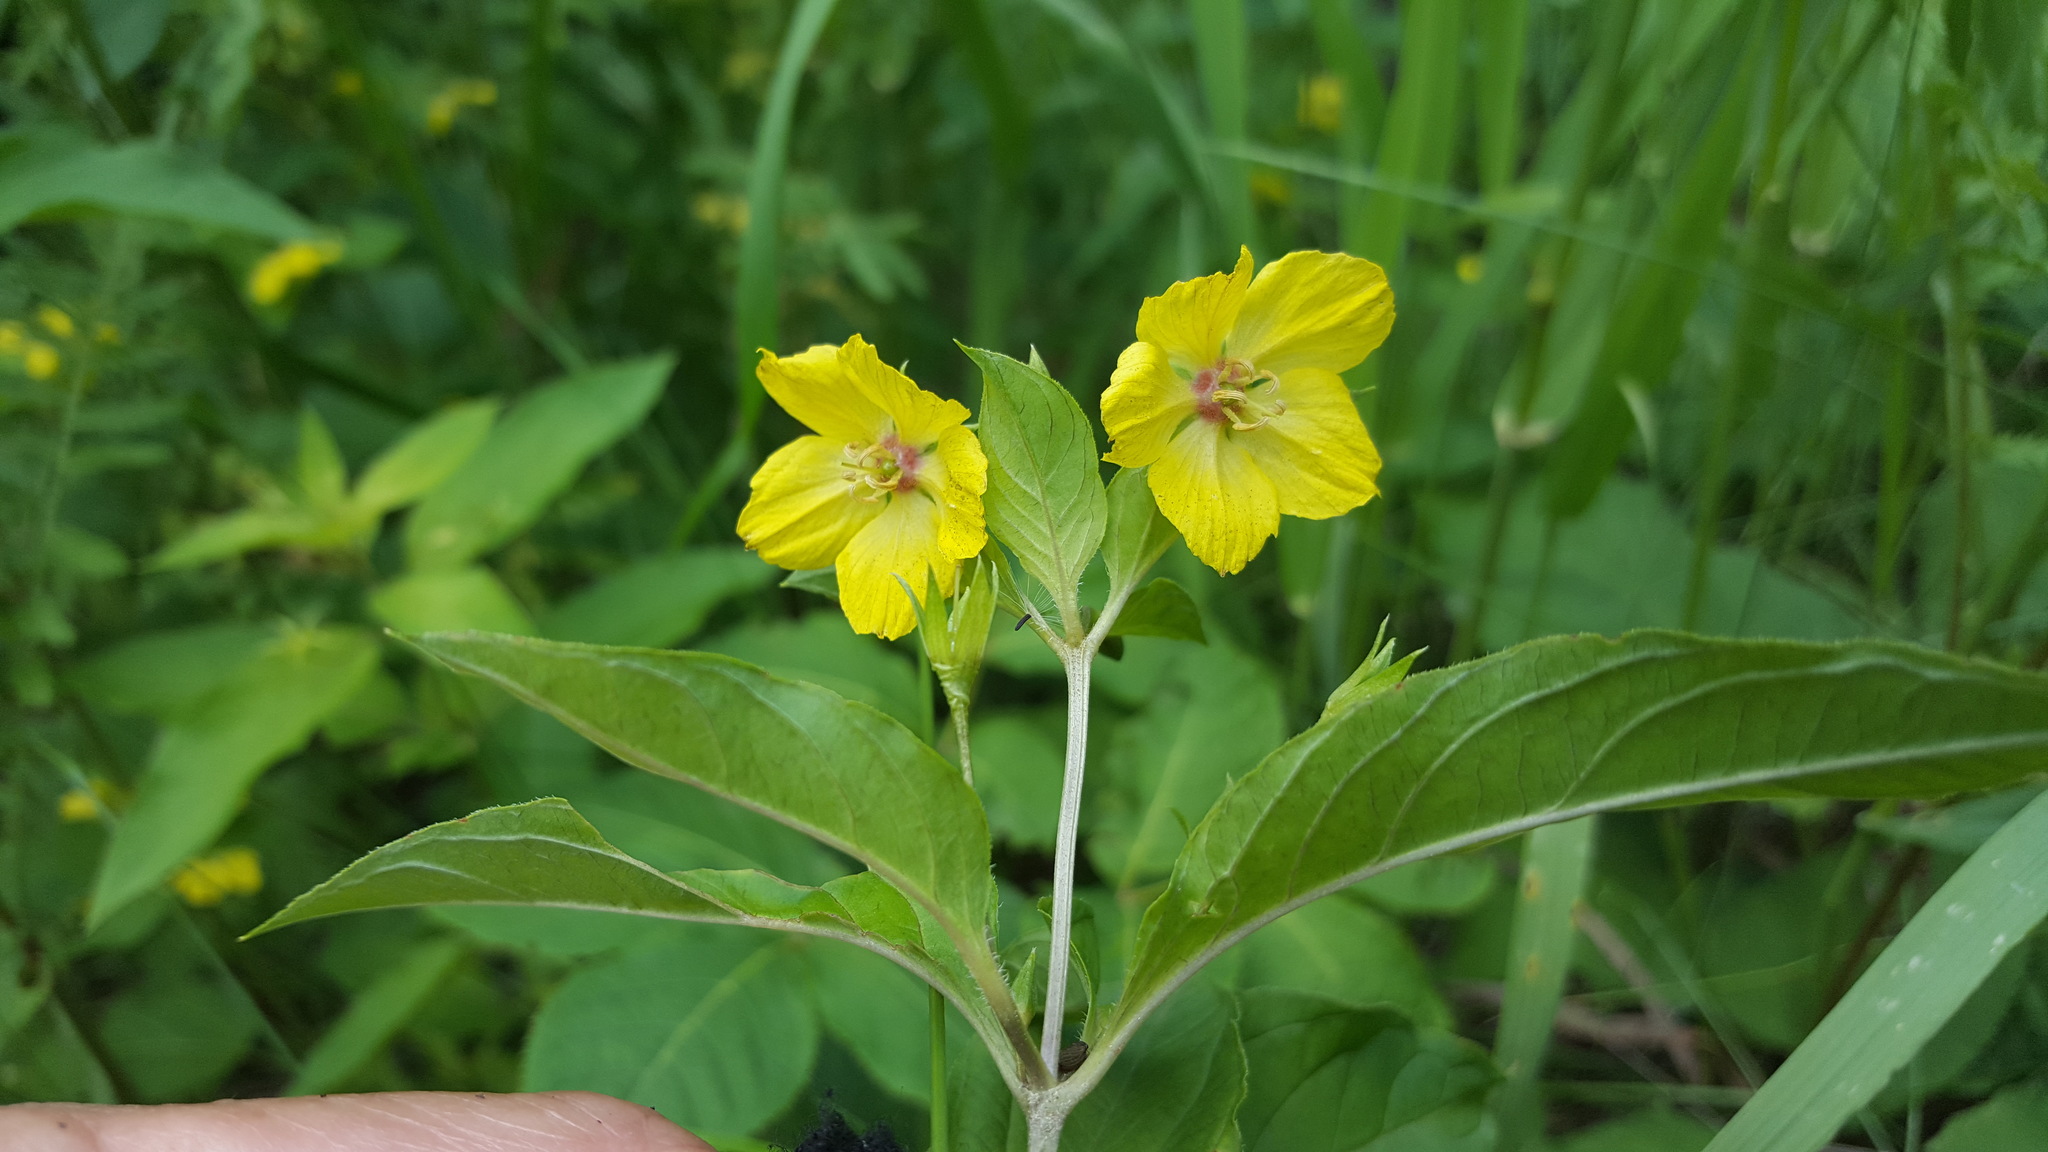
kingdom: Plantae
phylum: Tracheophyta
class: Magnoliopsida
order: Ericales
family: Primulaceae
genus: Lysimachia
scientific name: Lysimachia ciliata
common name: Fringed loosestrife
